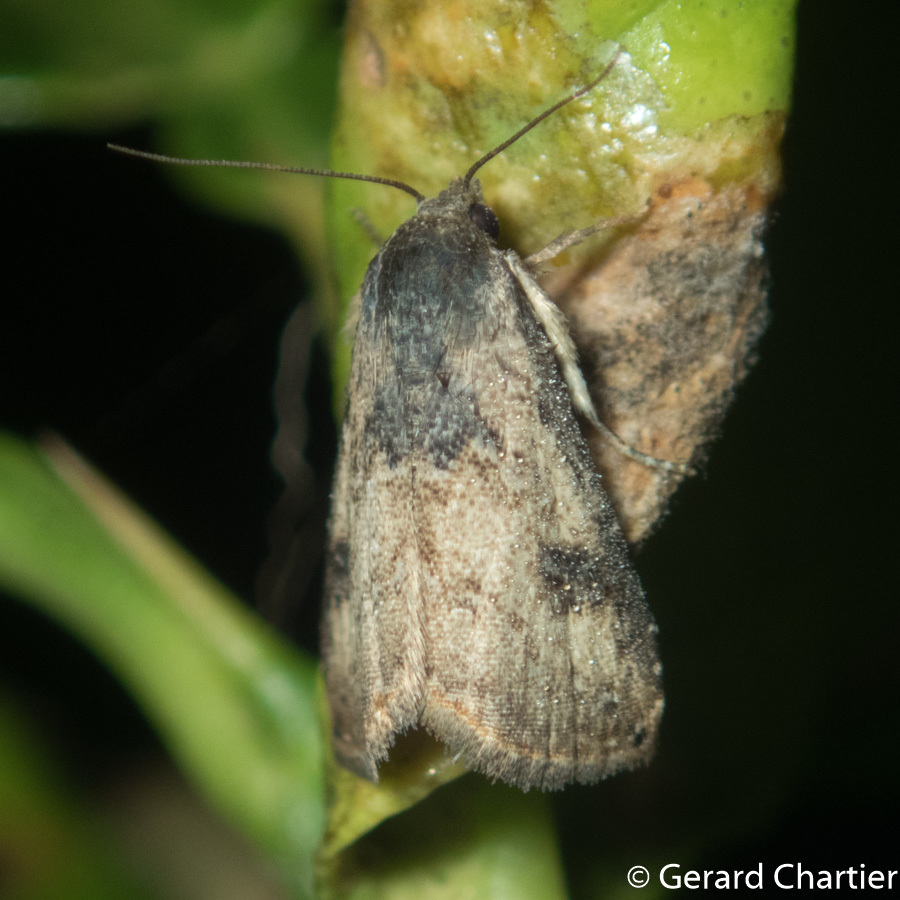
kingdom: Animalia
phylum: Arthropoda
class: Insecta
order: Lepidoptera
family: Erebidae
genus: Rivula
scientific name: Rivula sordida
